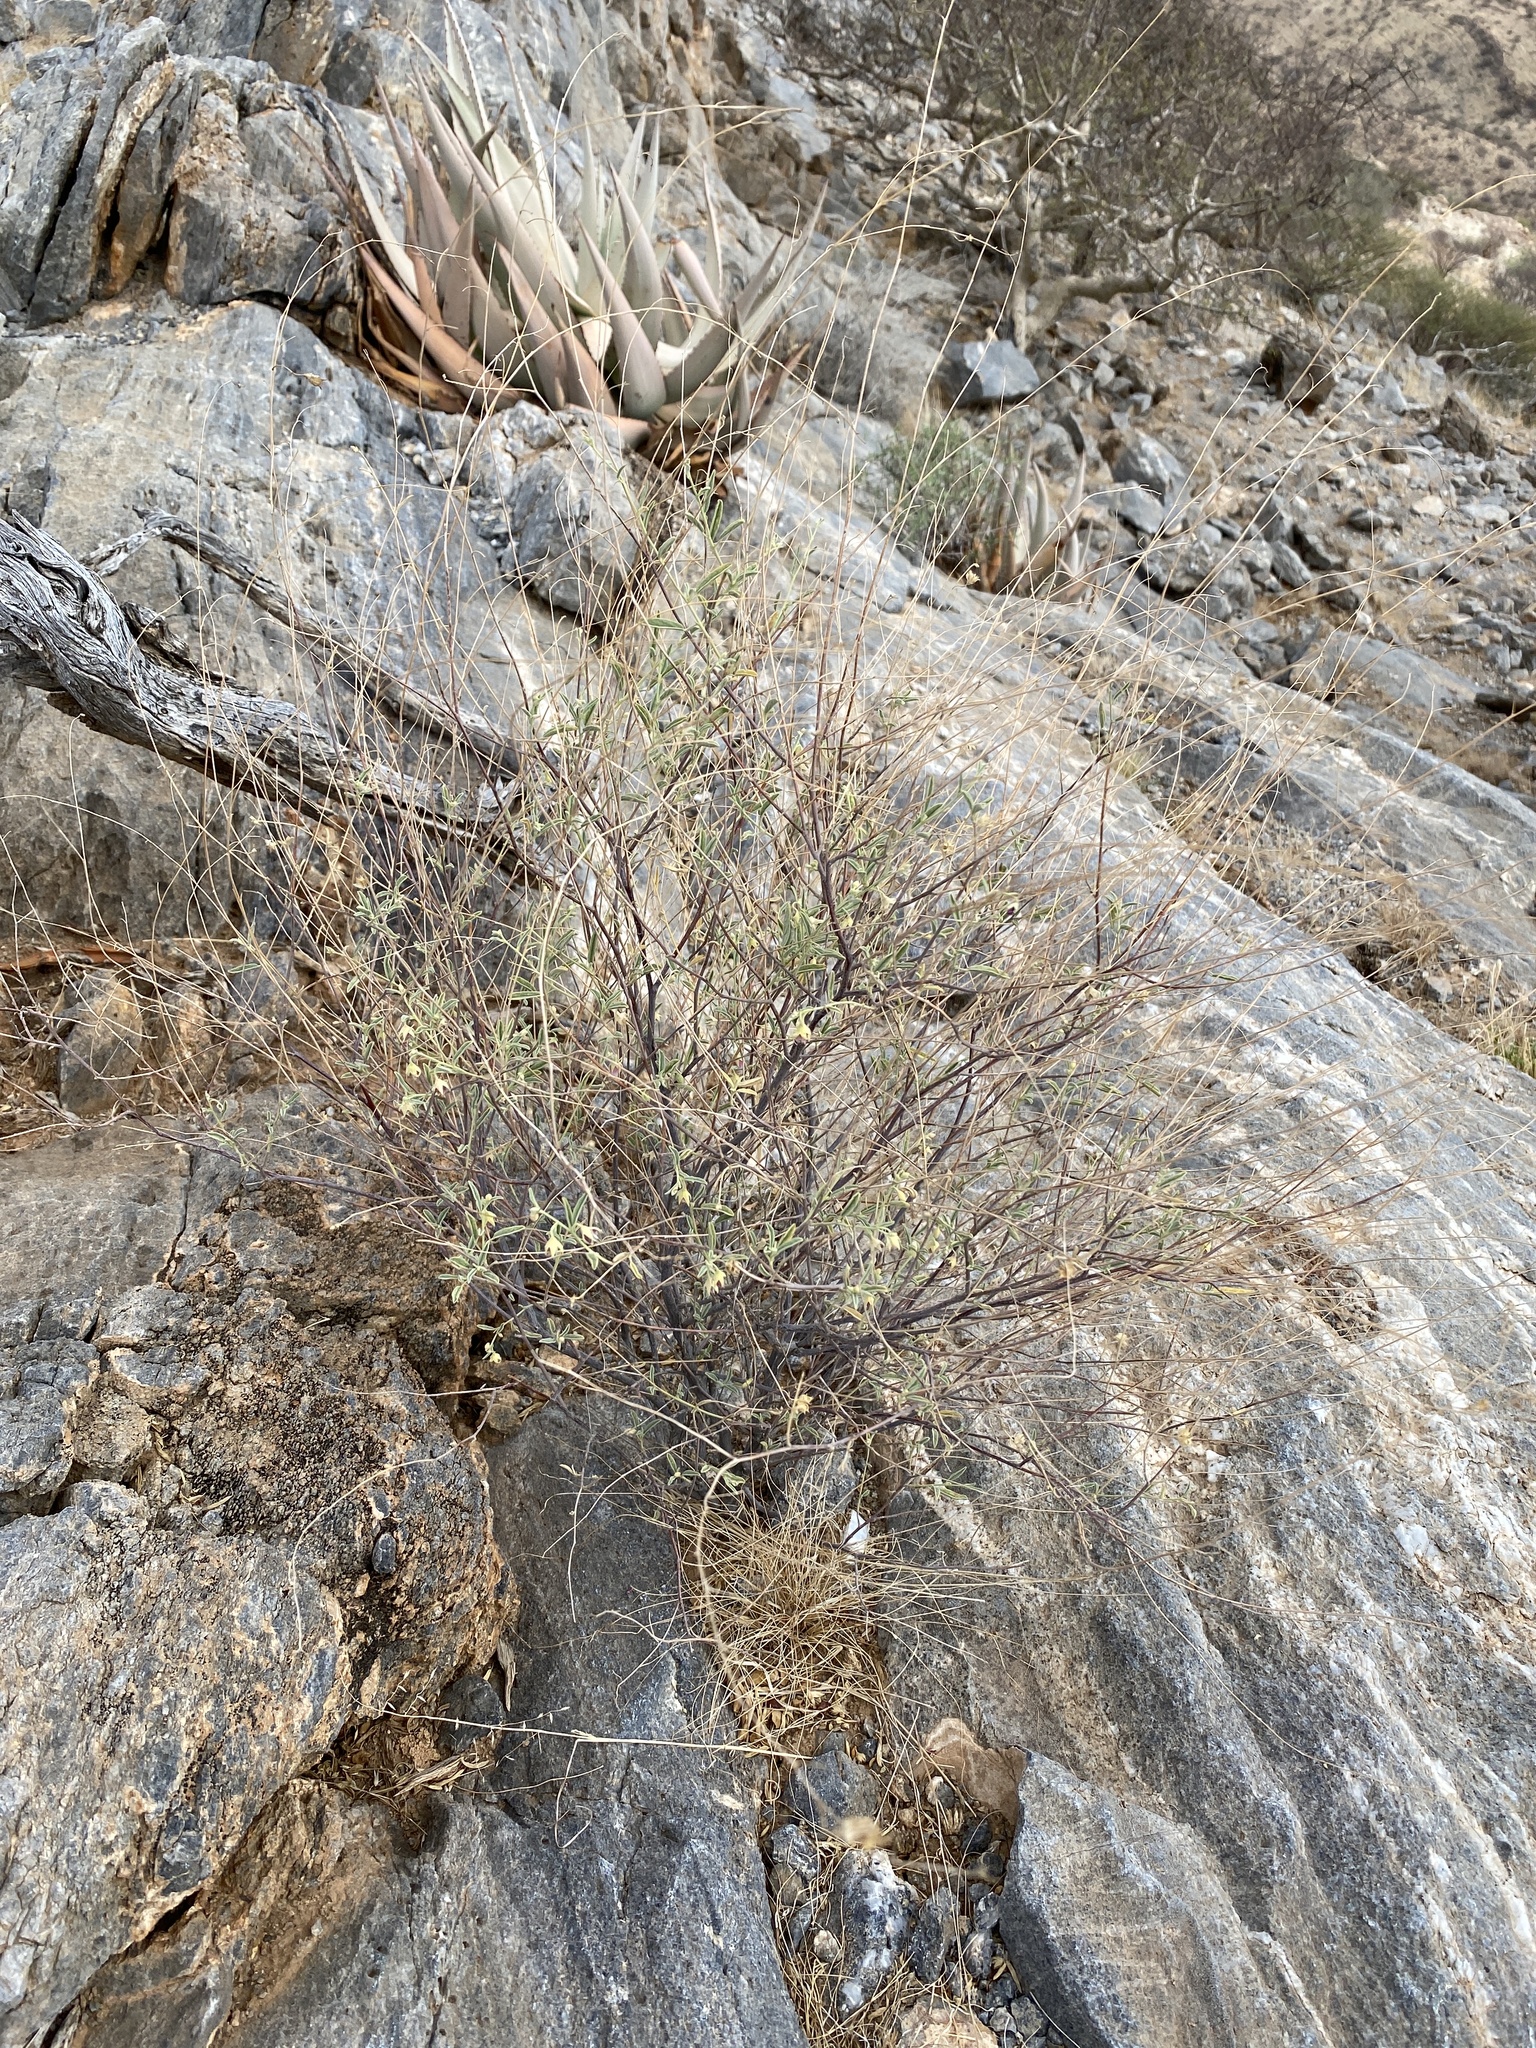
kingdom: Plantae
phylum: Tracheophyta
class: Magnoliopsida
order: Malvales
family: Malvaceae
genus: Hermannia
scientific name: Hermannia helianthemum
